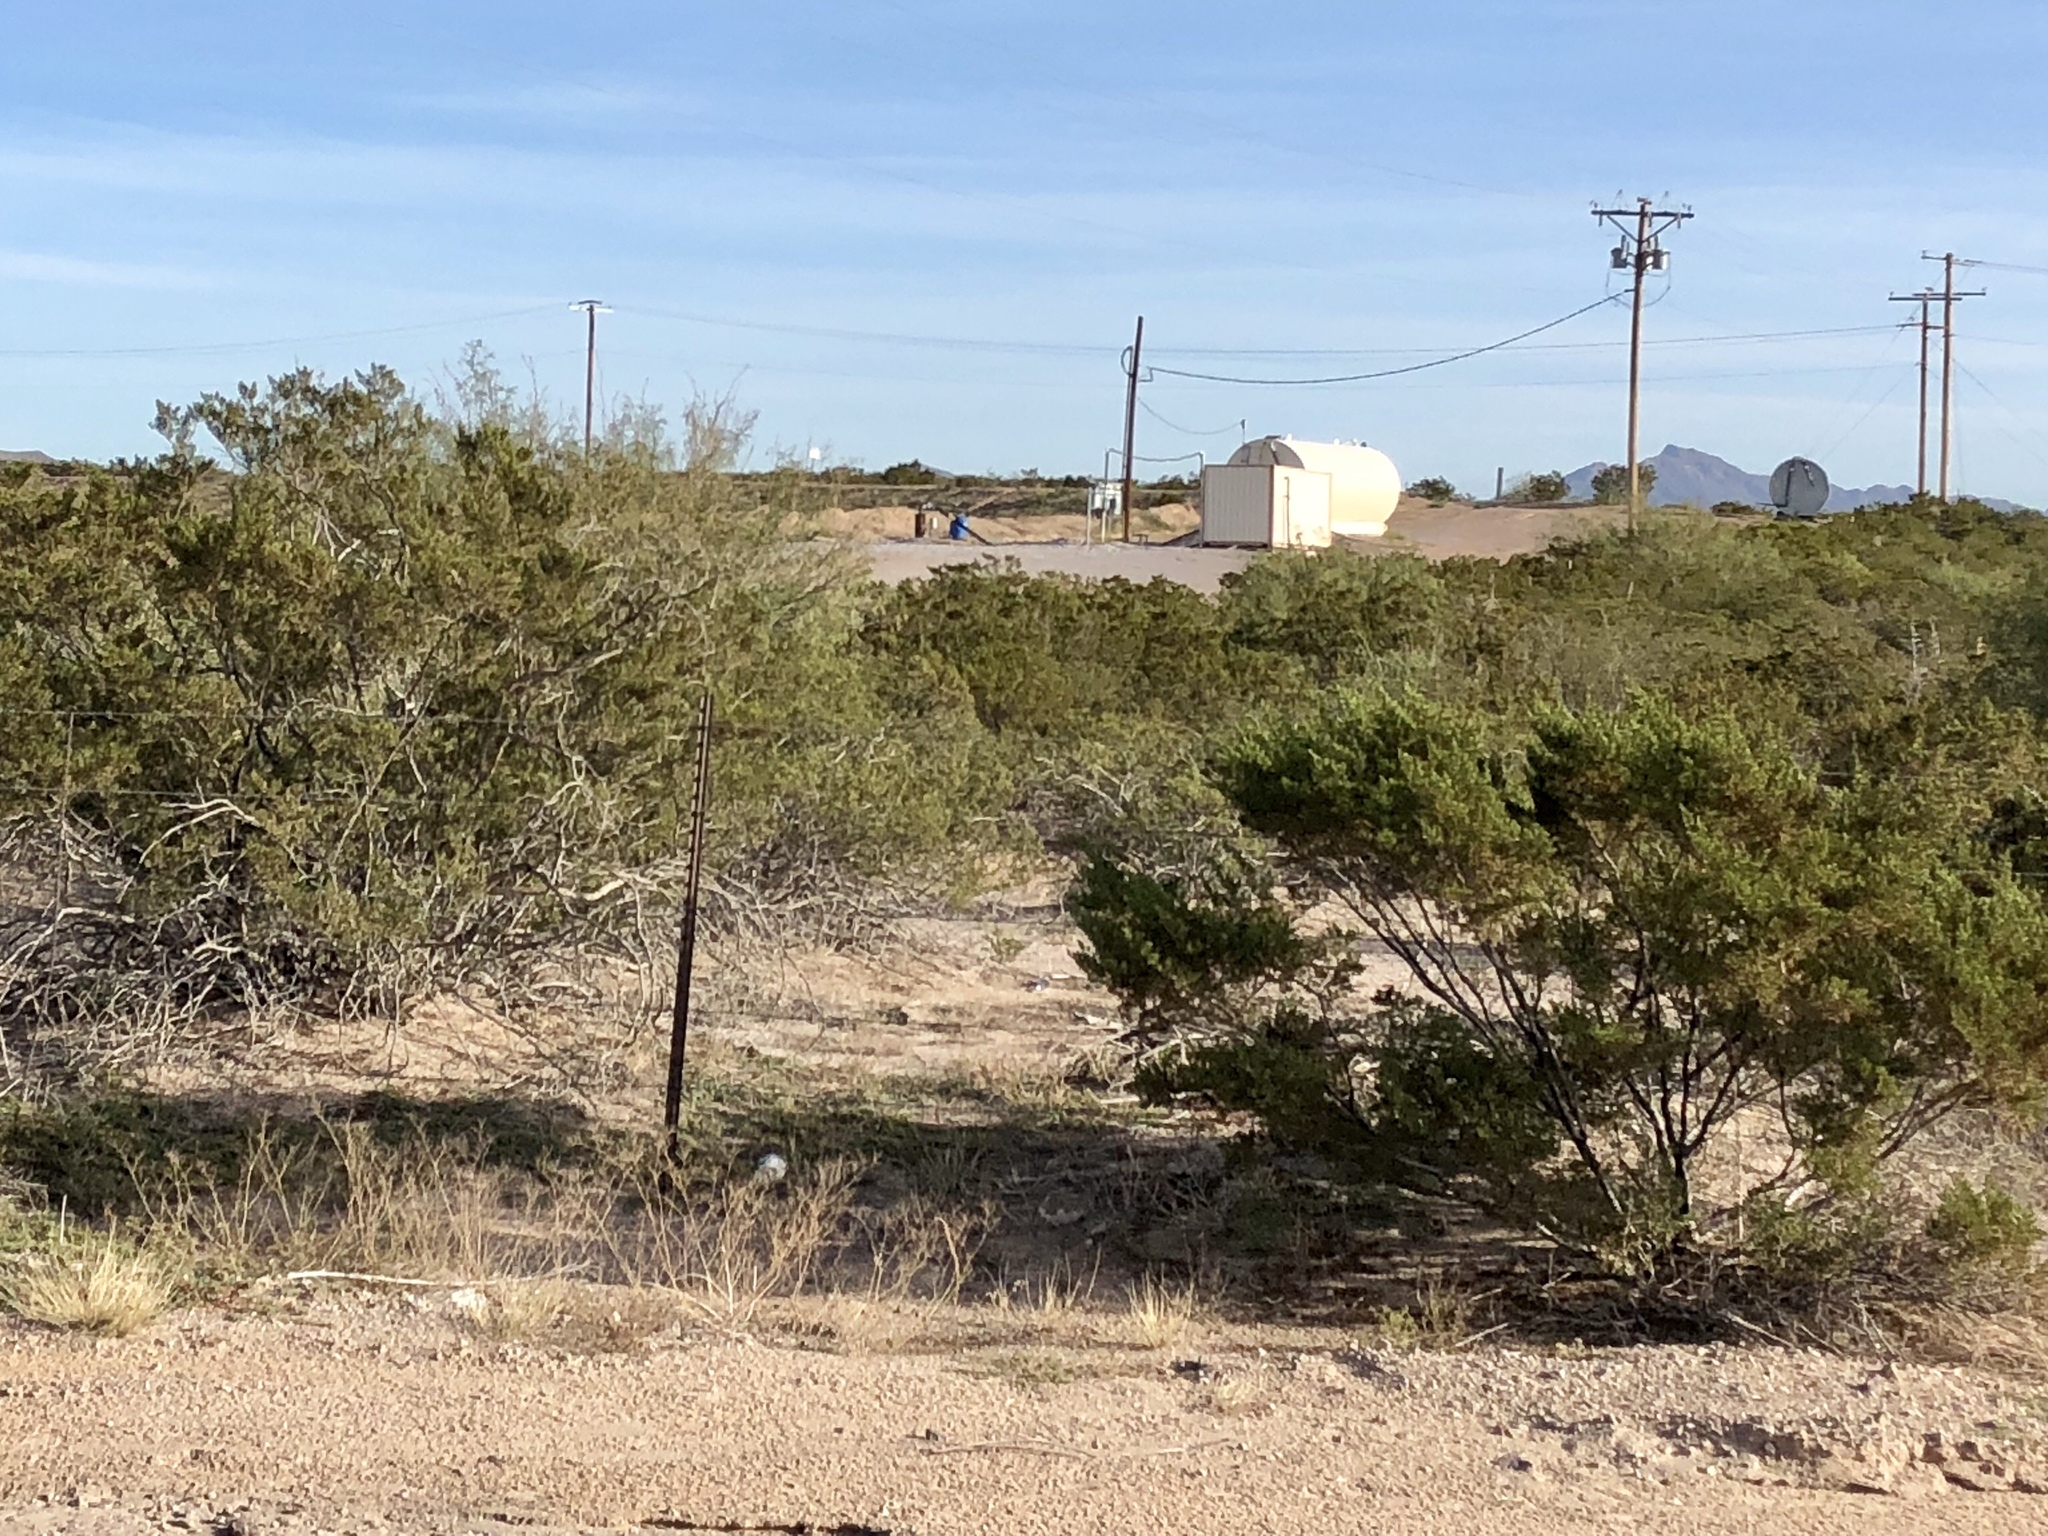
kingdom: Plantae
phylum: Tracheophyta
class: Magnoliopsida
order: Zygophyllales
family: Zygophyllaceae
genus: Larrea
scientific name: Larrea tridentata
